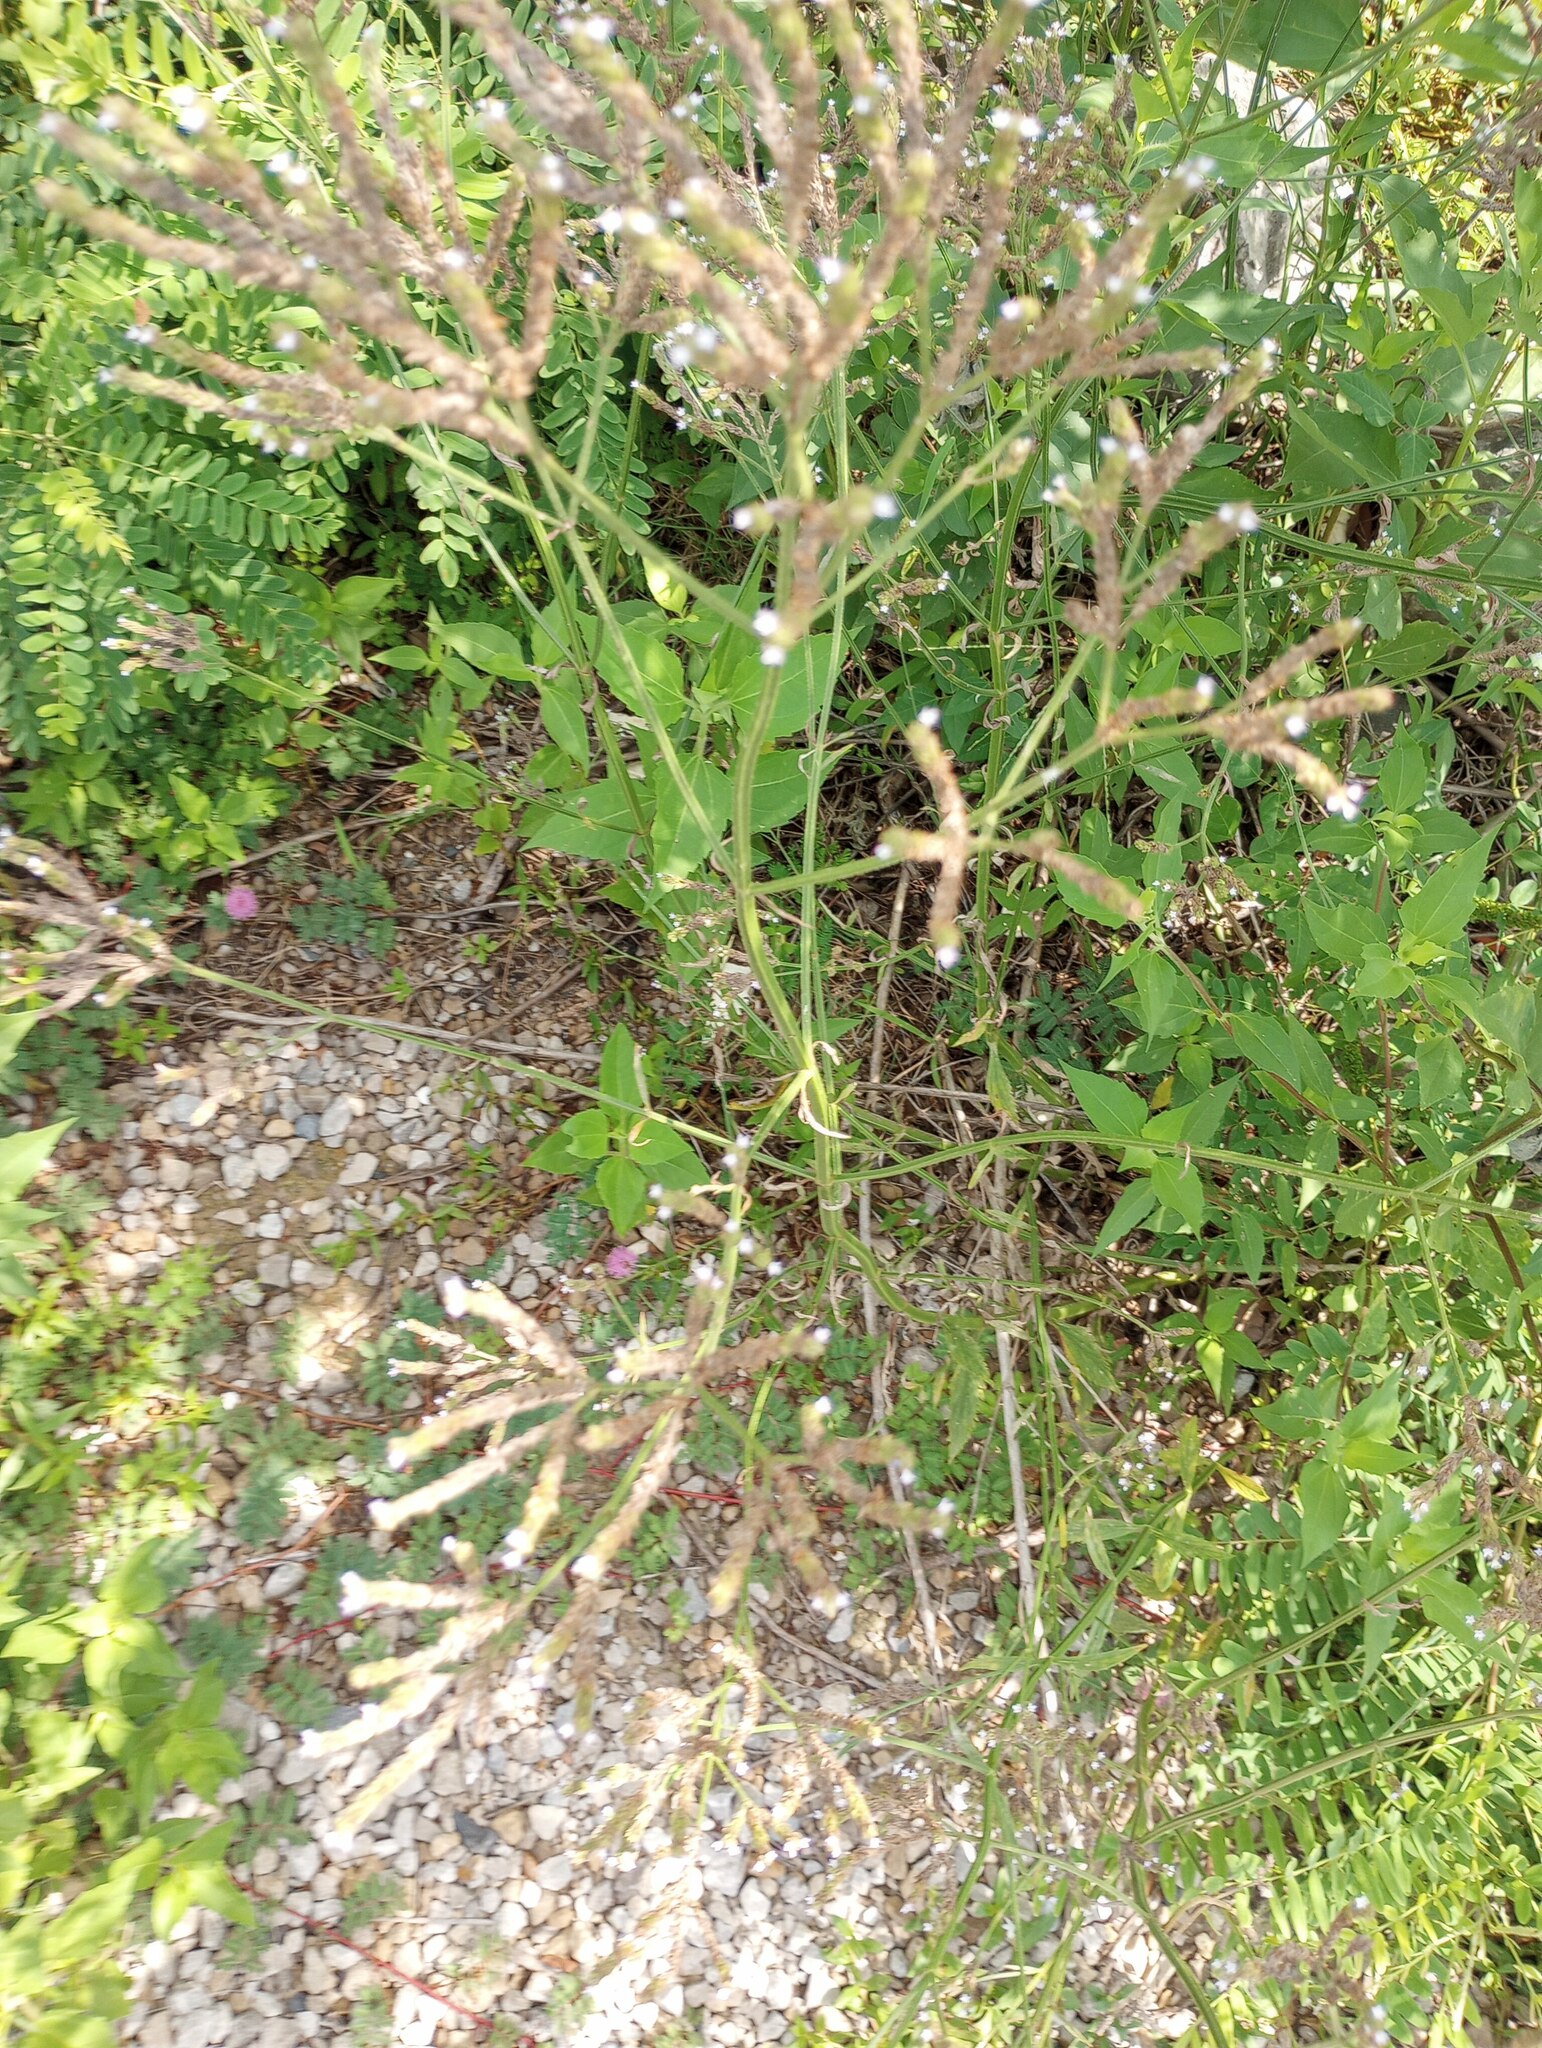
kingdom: Plantae
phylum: Tracheophyta
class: Magnoliopsida
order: Lamiales
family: Verbenaceae
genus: Verbena
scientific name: Verbena brasiliensis
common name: Brazilian vervain
